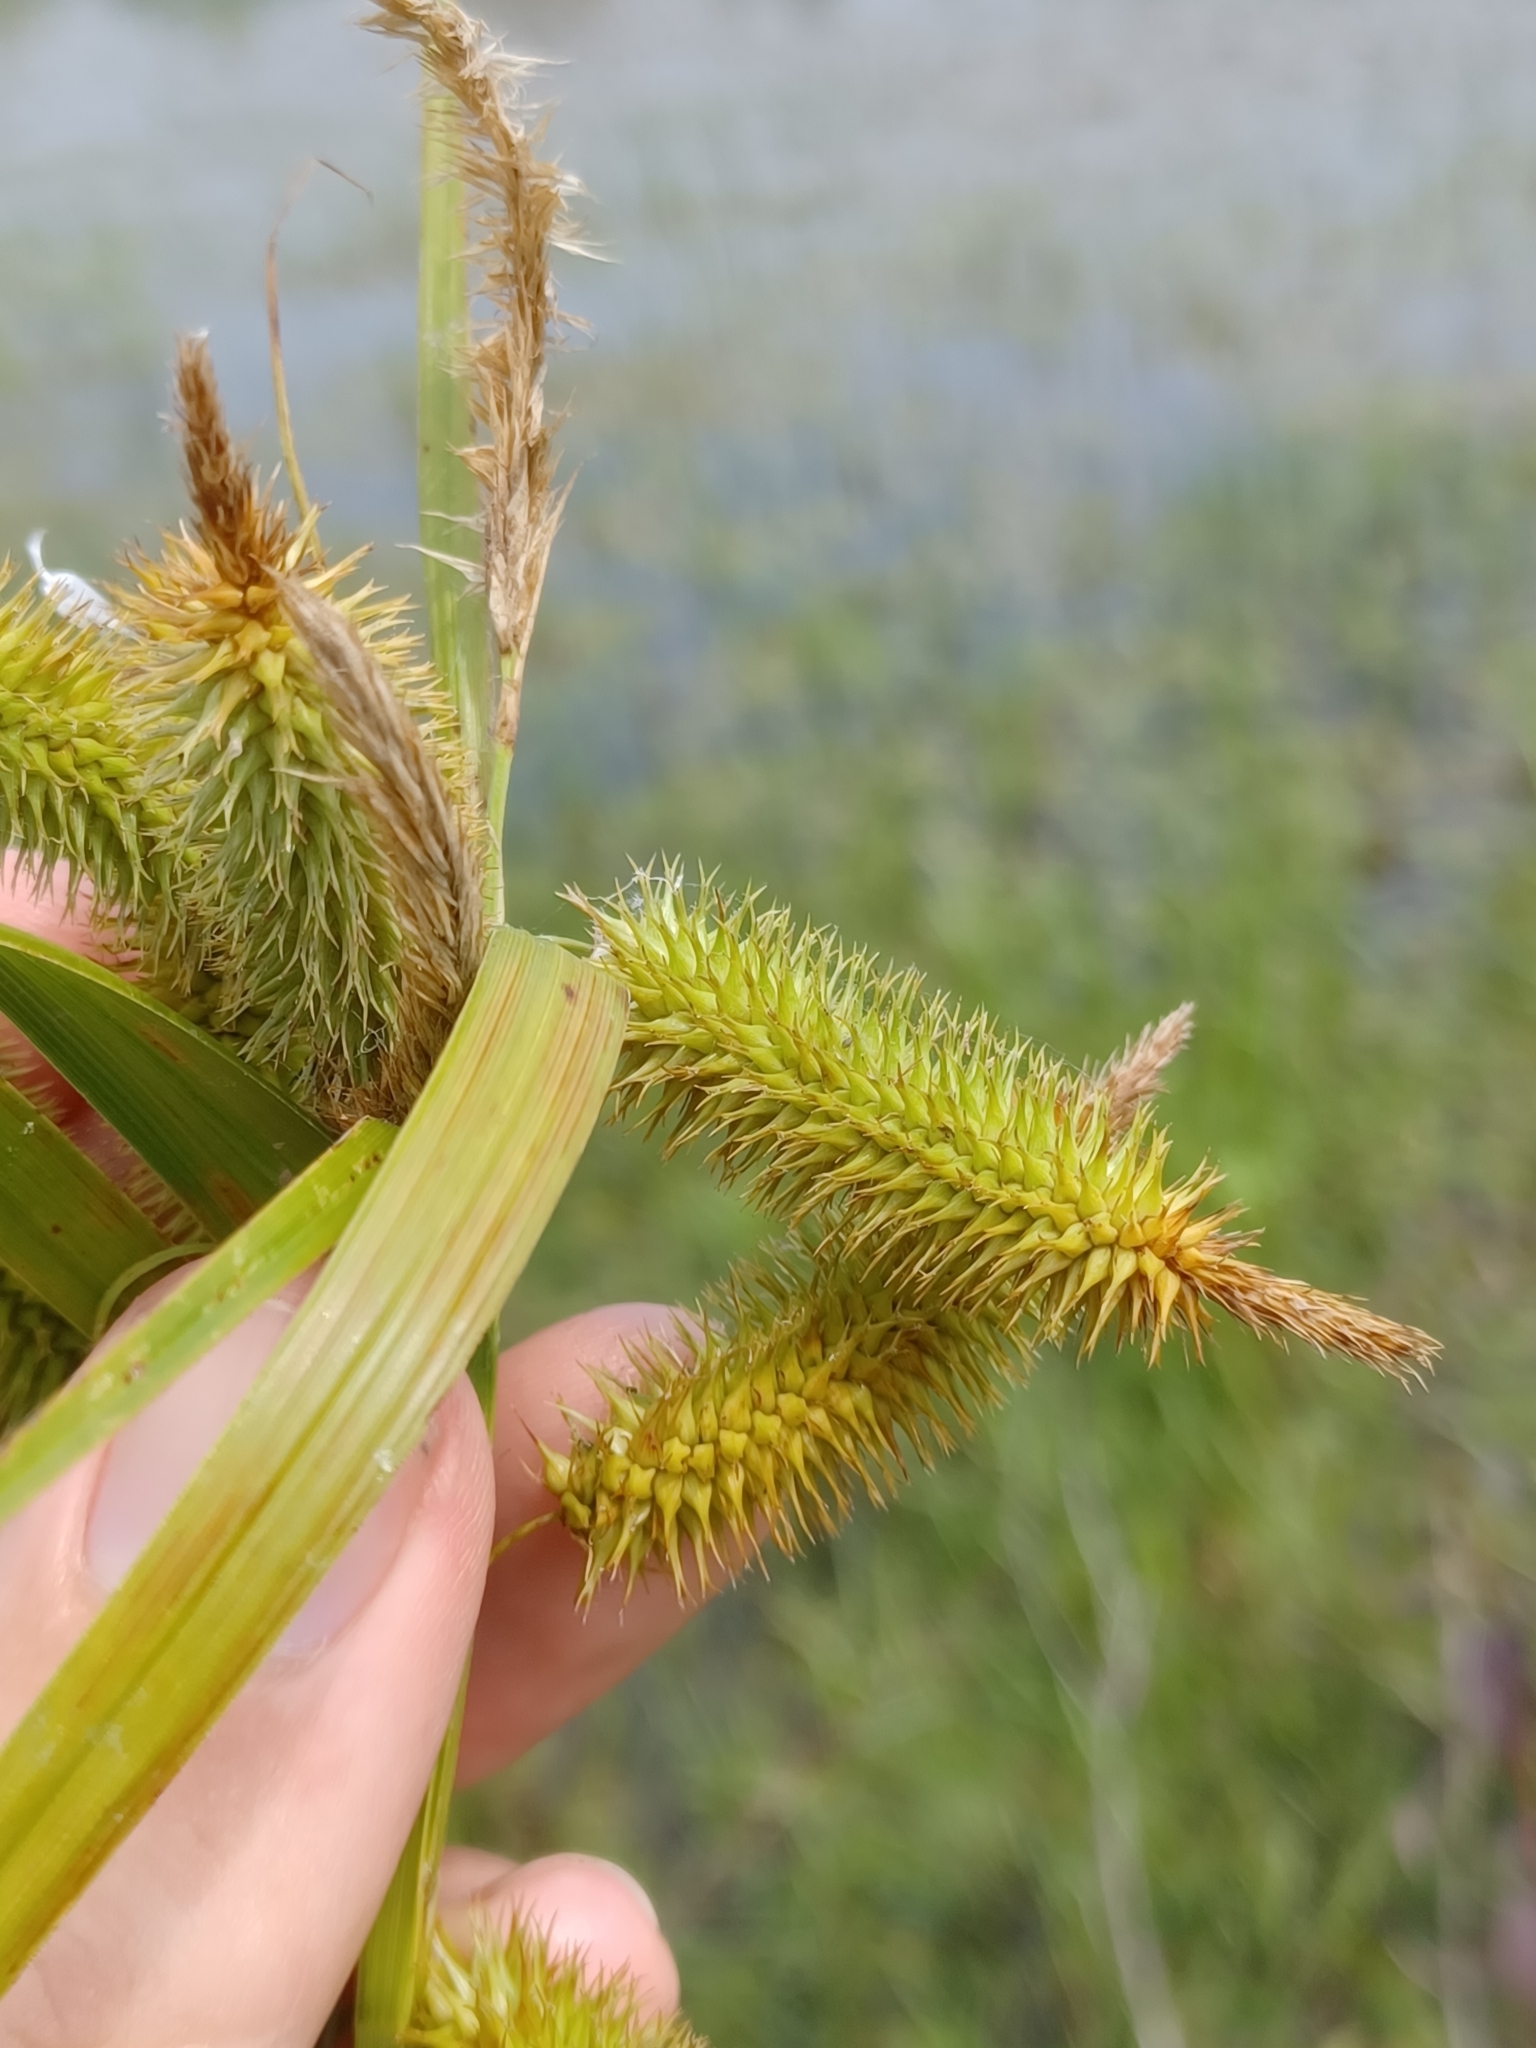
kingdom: Plantae
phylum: Tracheophyta
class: Liliopsida
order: Poales
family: Cyperaceae
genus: Carex
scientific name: Carex comosa
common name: Bristly sedge
